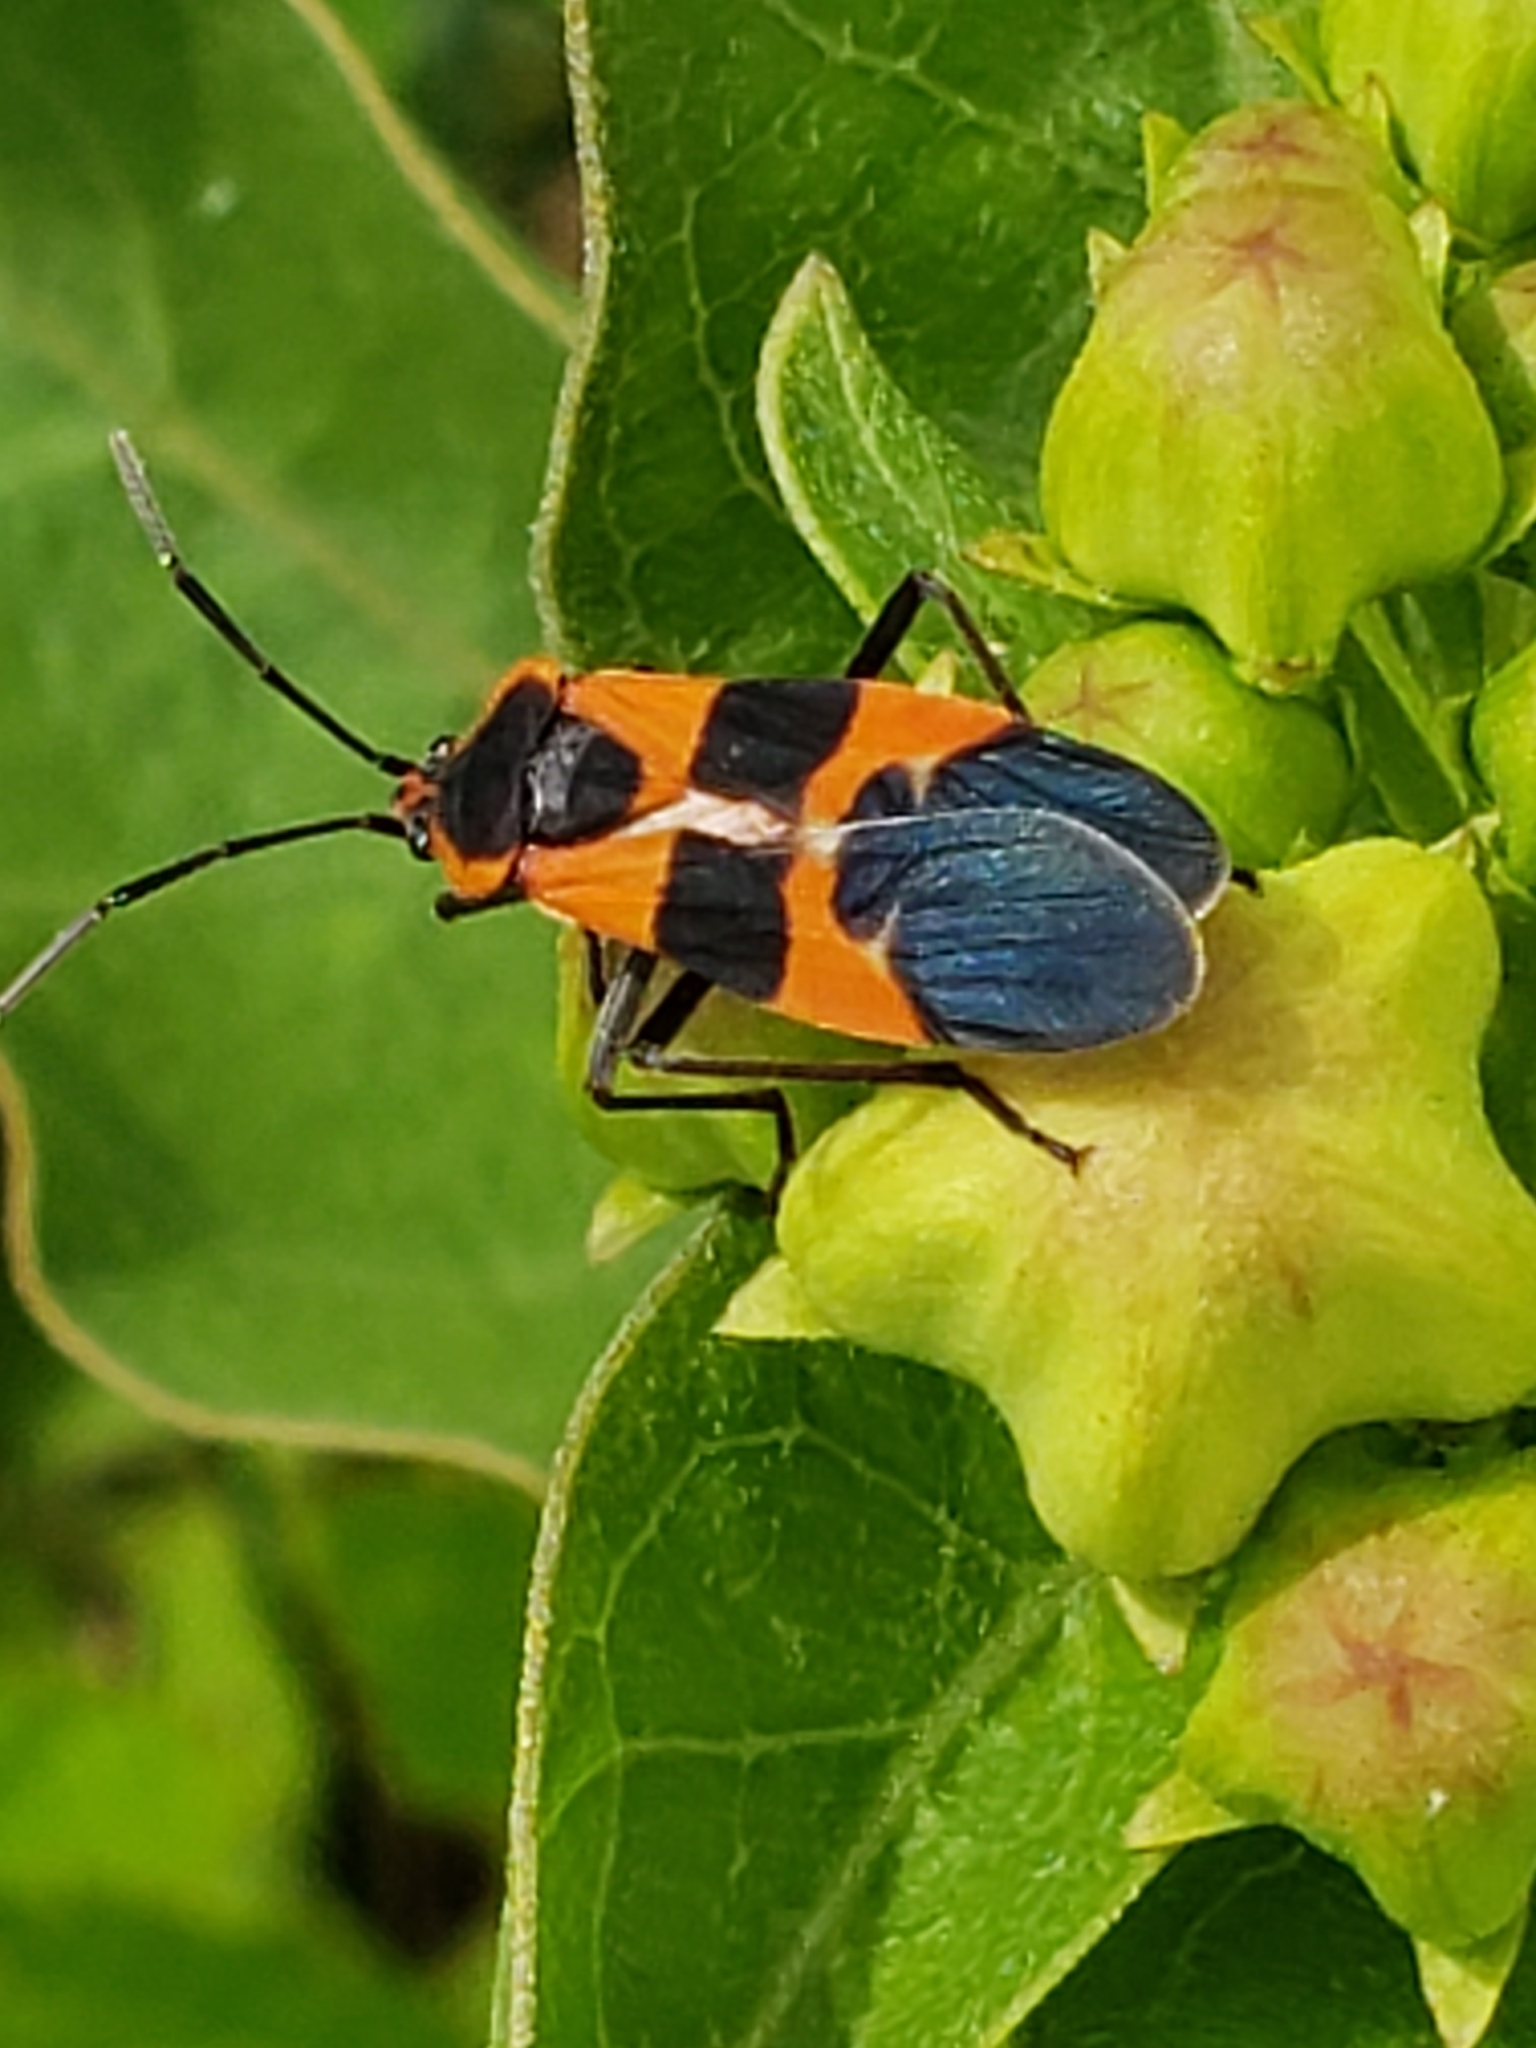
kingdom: Animalia
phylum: Arthropoda
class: Insecta
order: Hemiptera
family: Lygaeidae
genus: Oncopeltus
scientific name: Oncopeltus fasciatus
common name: Large milkweed bug
